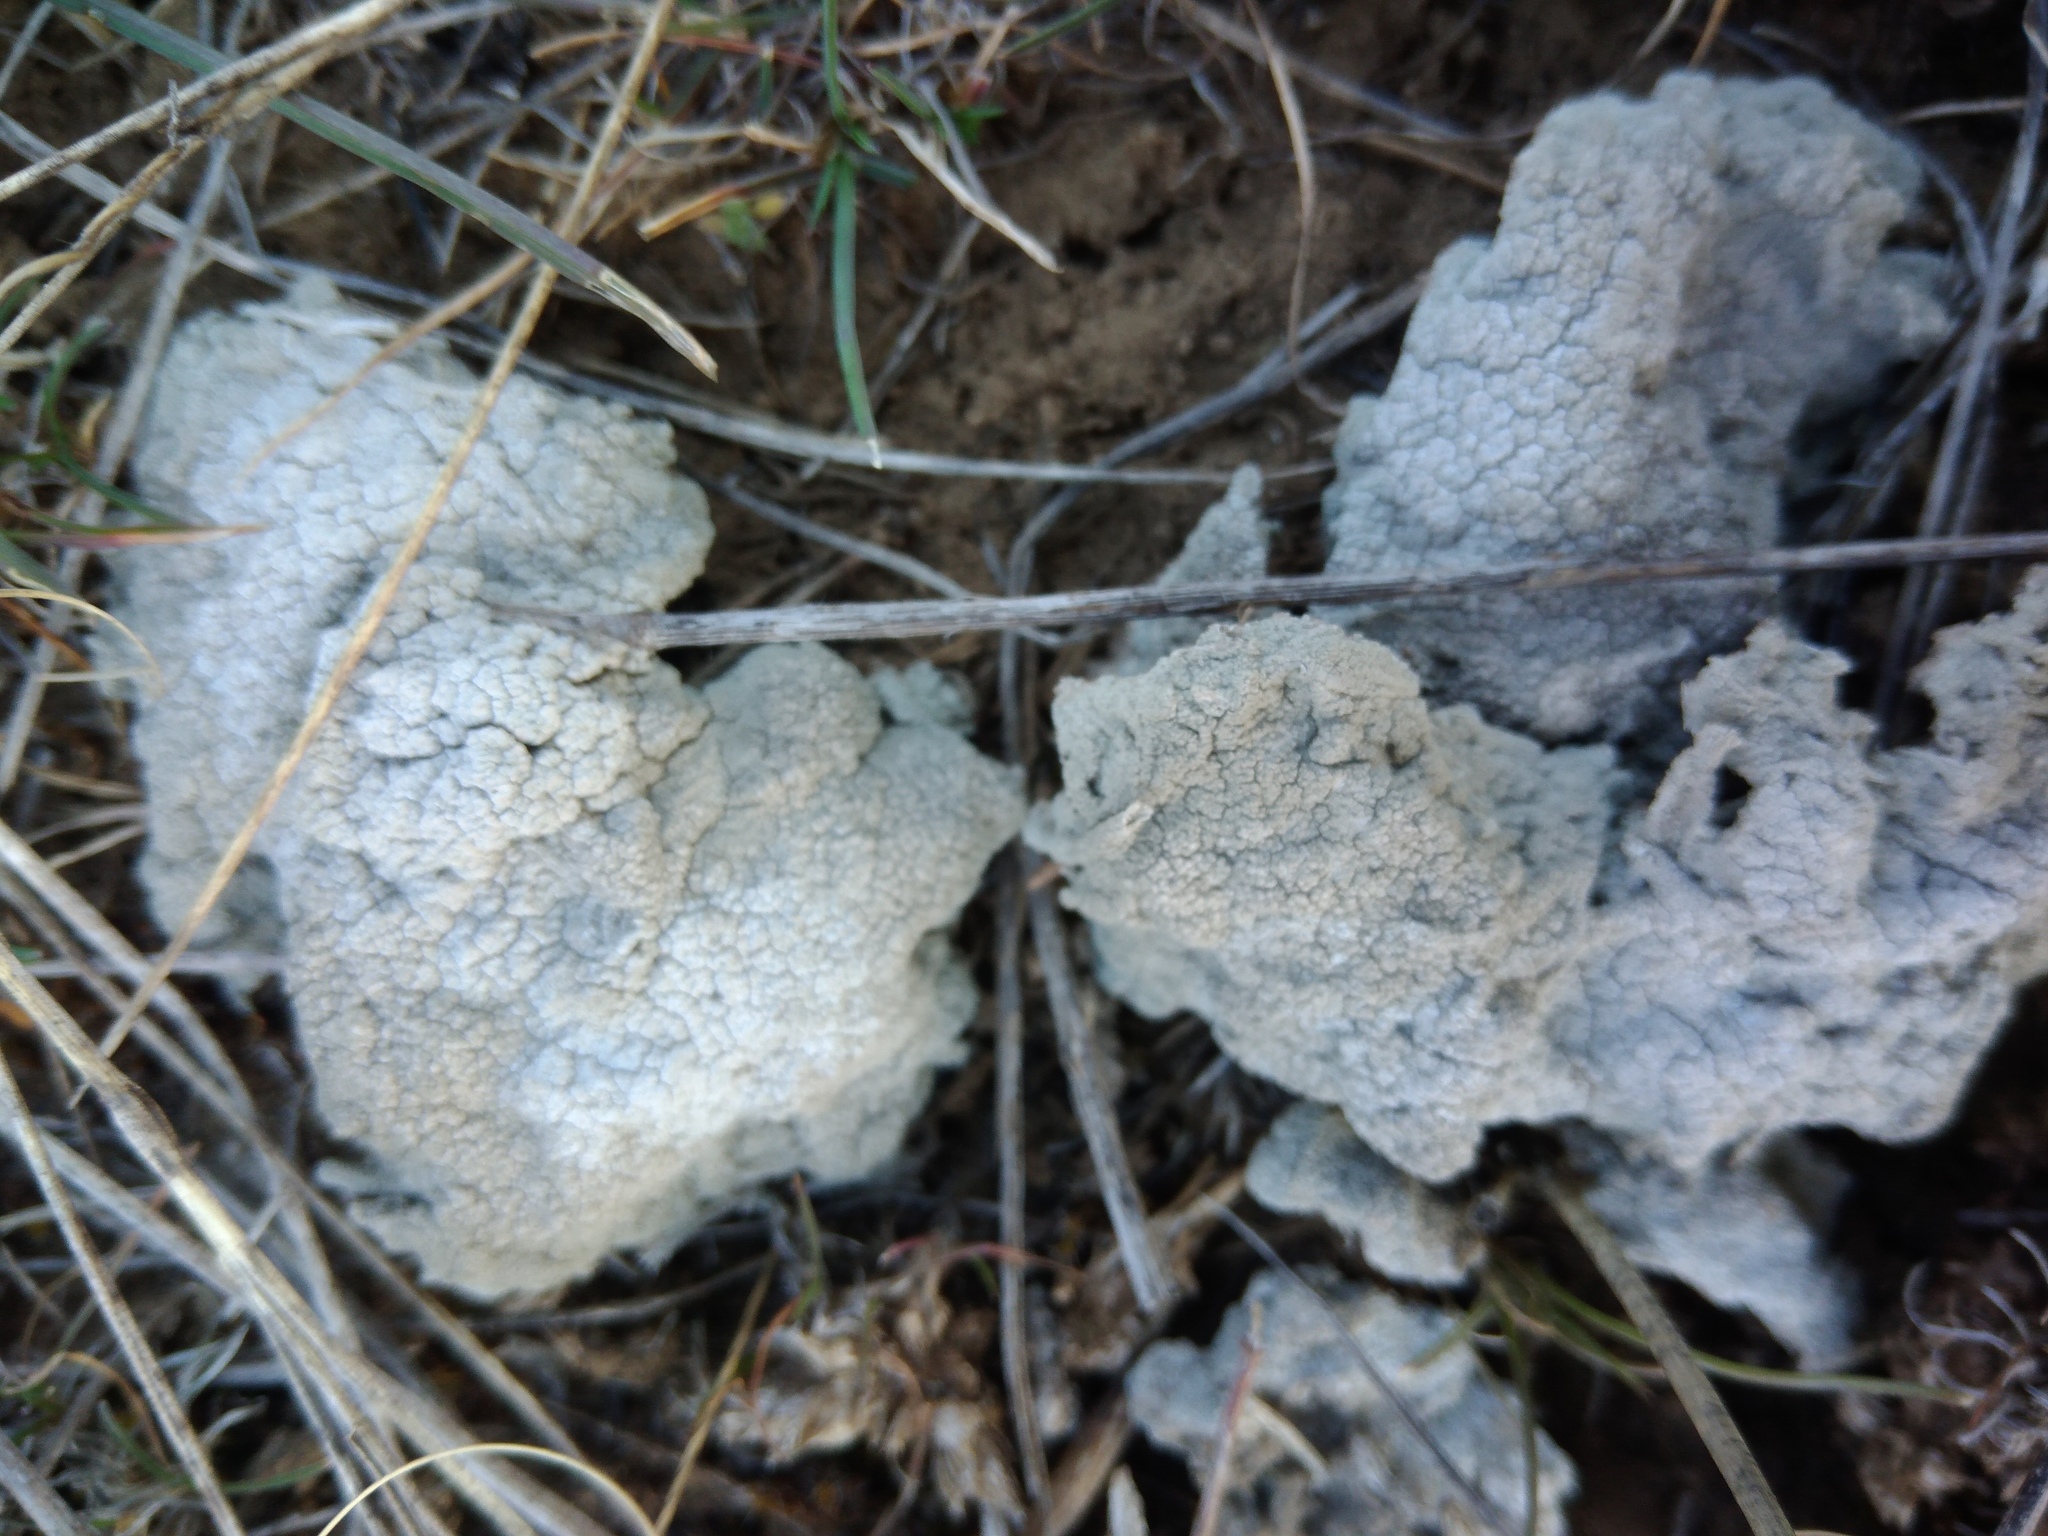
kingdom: Fungi
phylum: Ascomycota
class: Lecanoromycetes
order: Ostropales
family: Graphidaceae
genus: Diploschistes
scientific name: Diploschistes diacapsis
